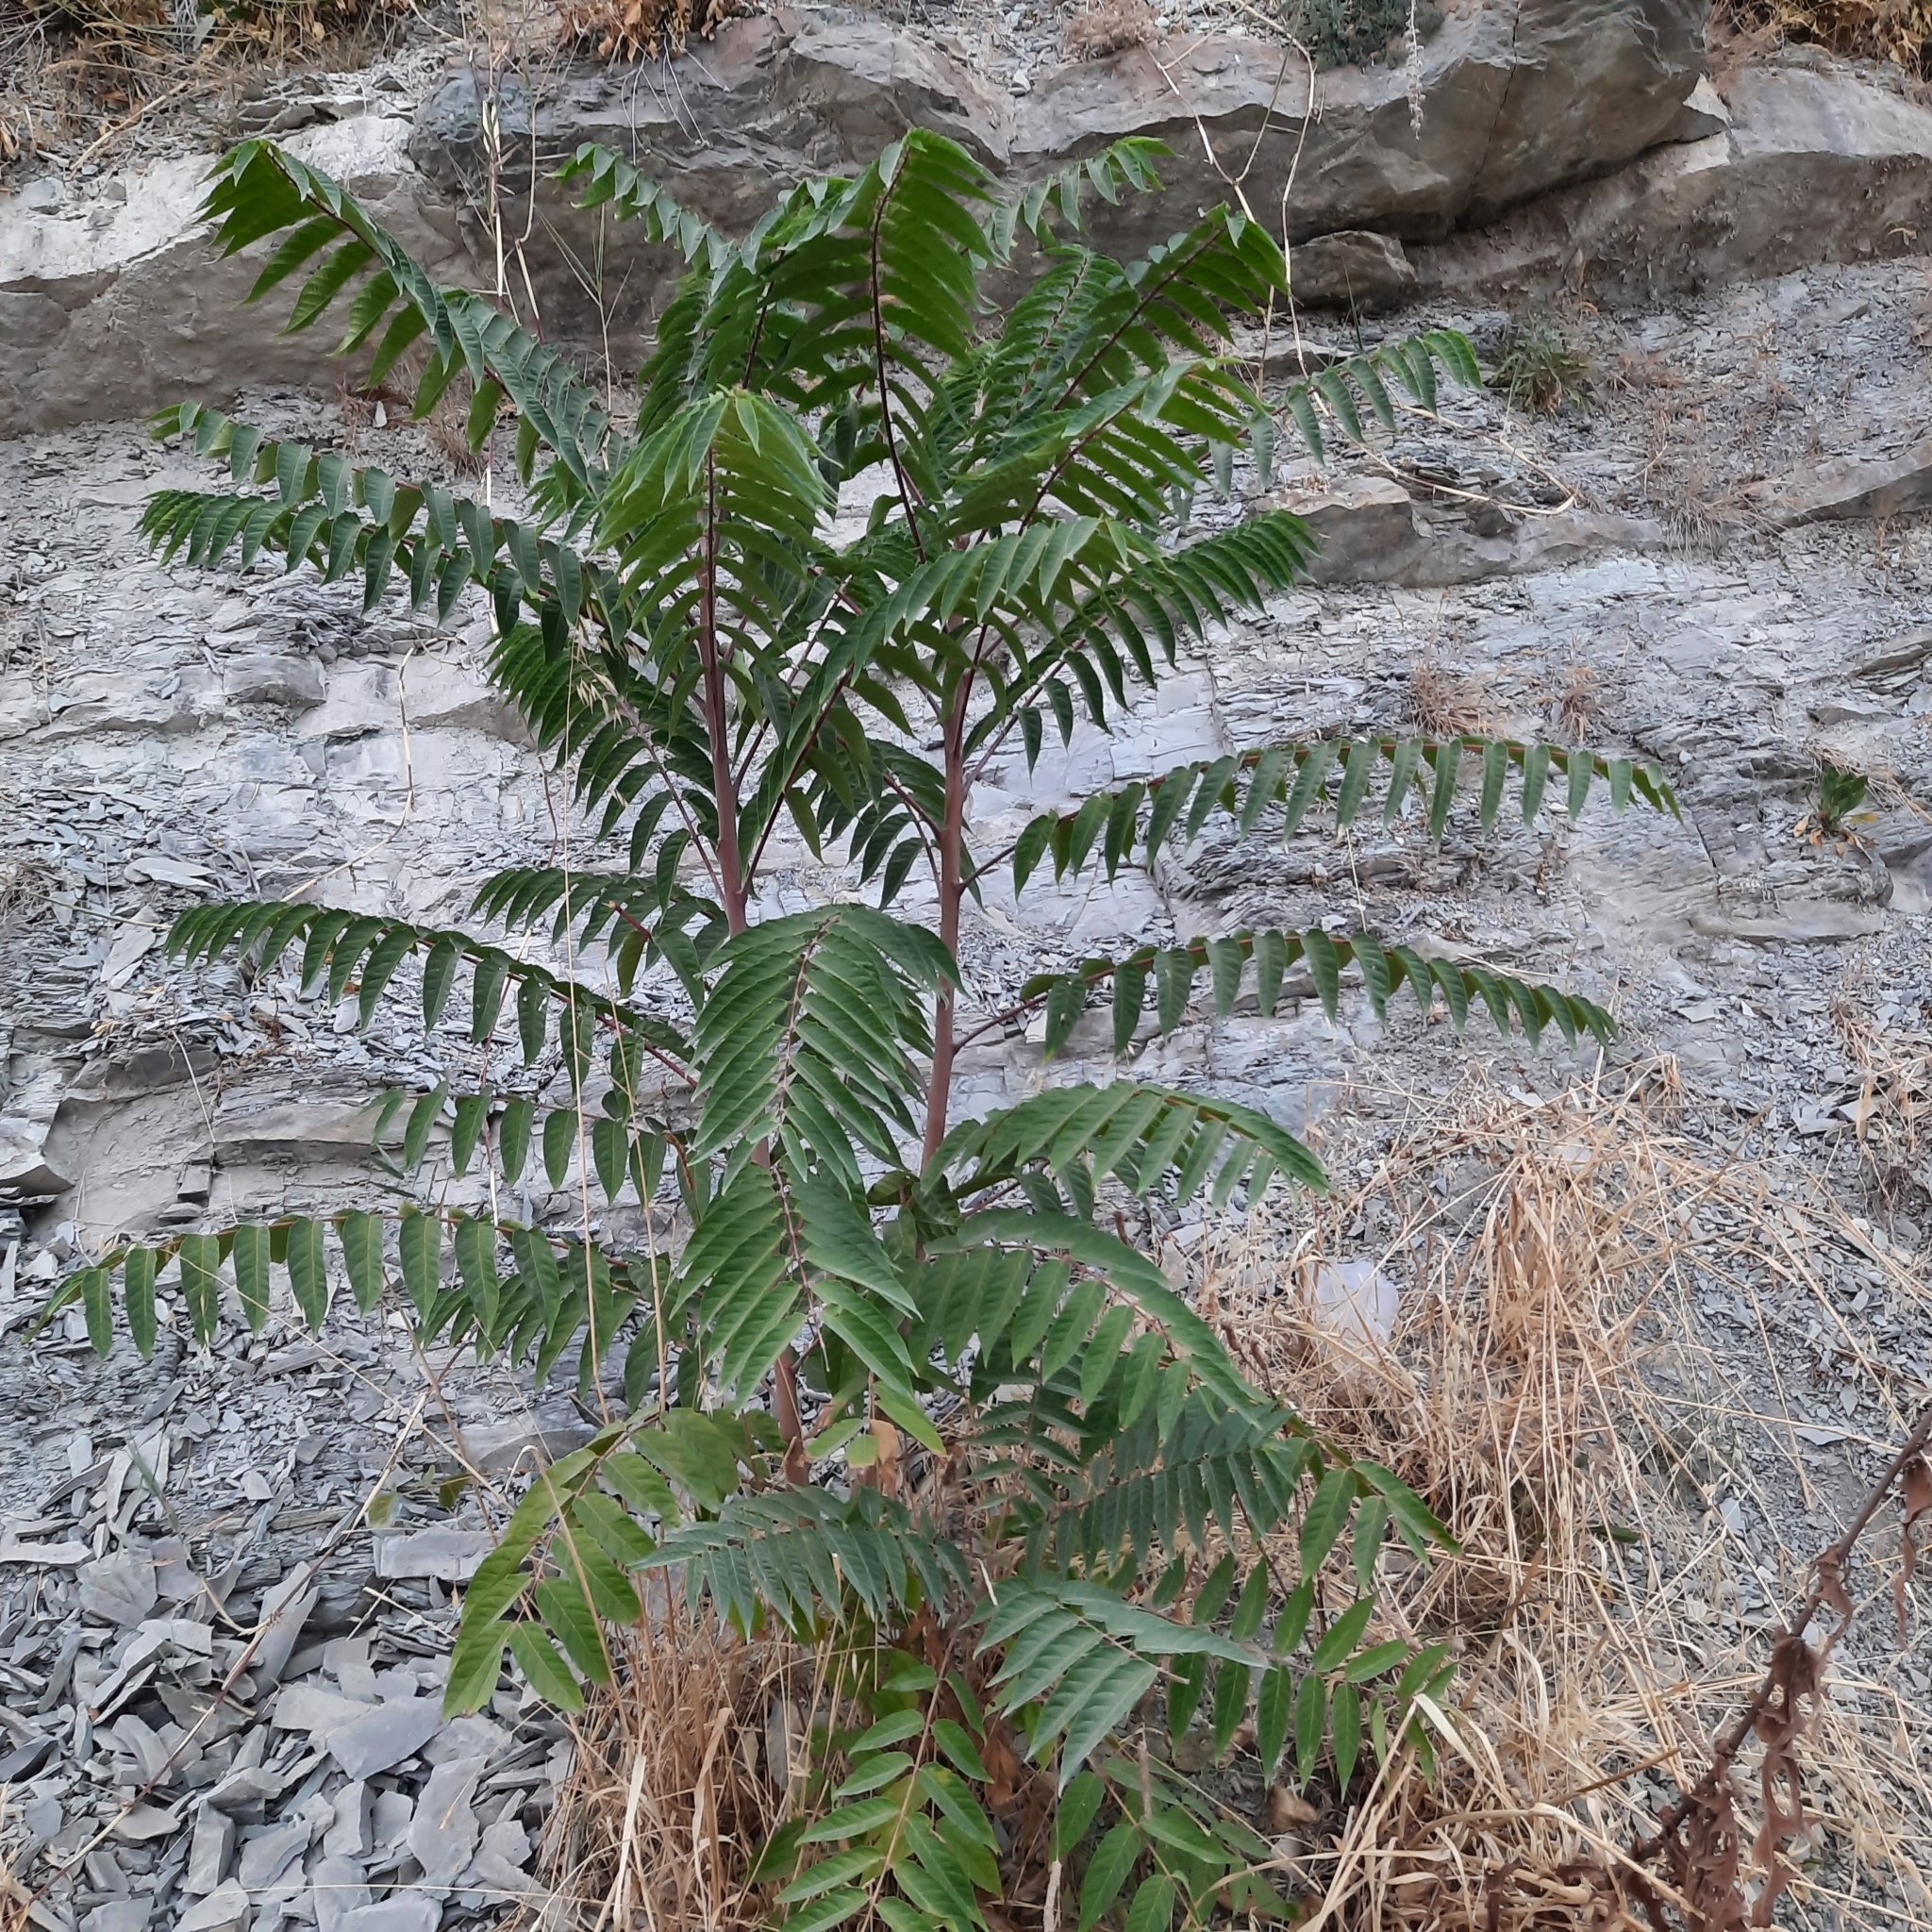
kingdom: Plantae
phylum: Tracheophyta
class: Magnoliopsida
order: Sapindales
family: Simaroubaceae
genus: Ailanthus
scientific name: Ailanthus altissima
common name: Tree-of-heaven
